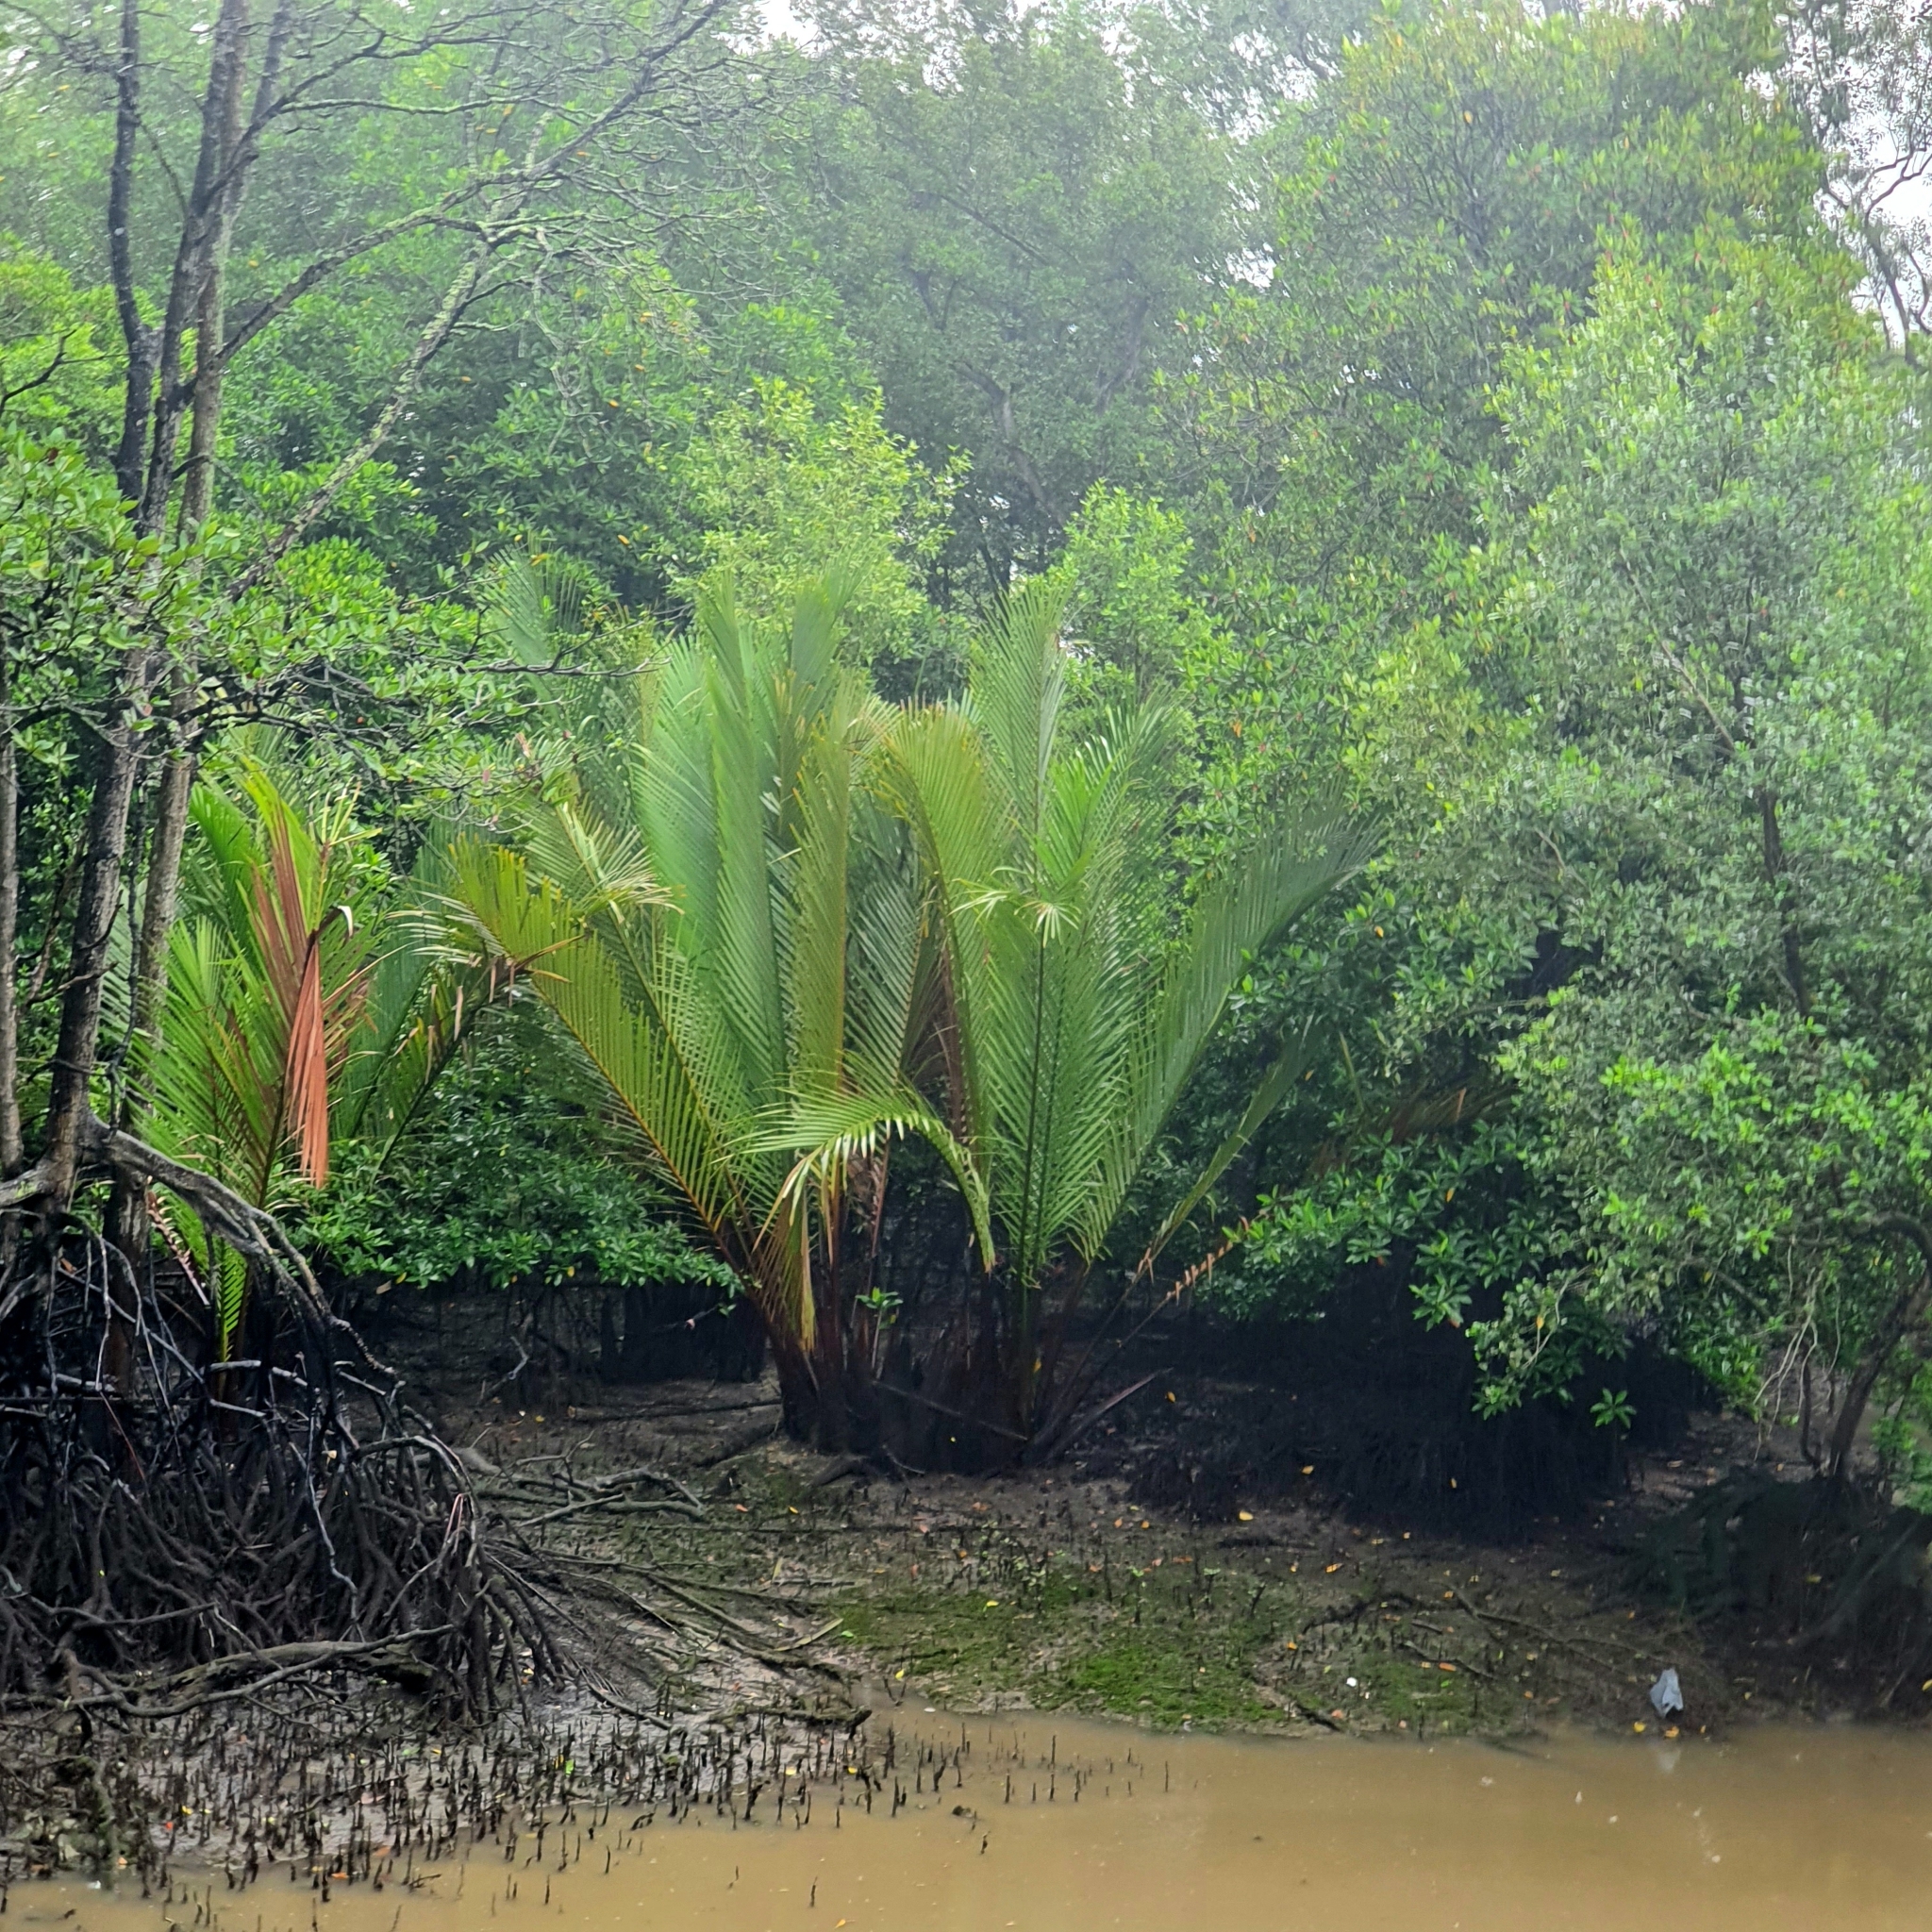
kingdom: Plantae
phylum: Tracheophyta
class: Liliopsida
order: Arecales
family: Arecaceae
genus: Nypa
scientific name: Nypa fruticans
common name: Mangrove palm
